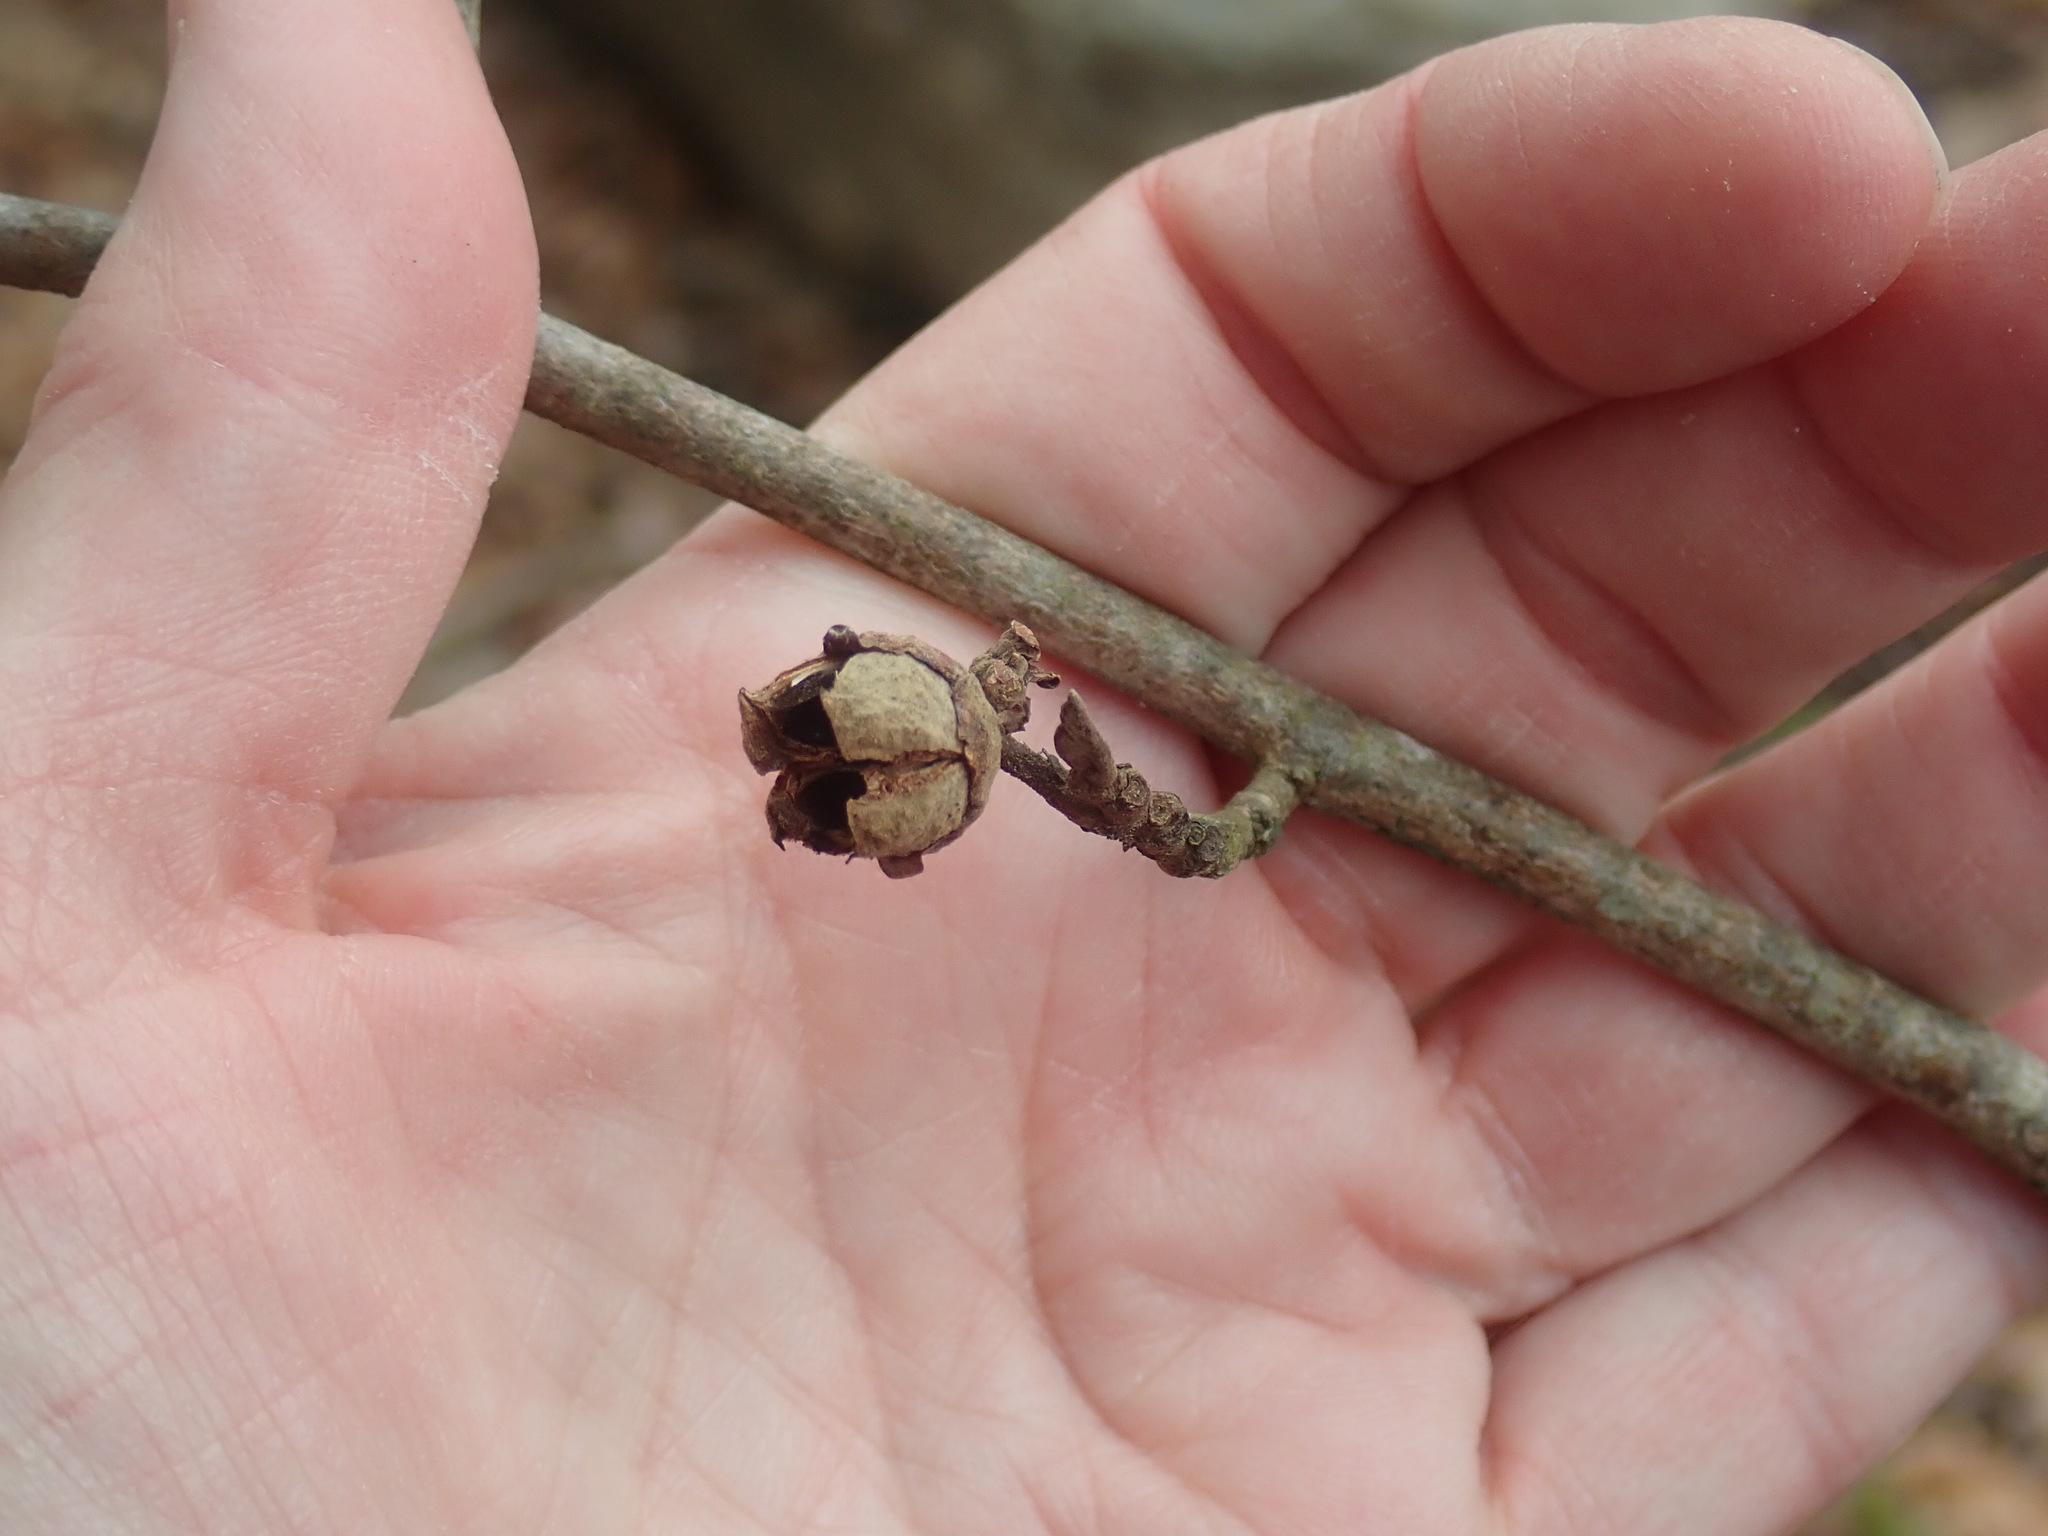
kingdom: Plantae
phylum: Tracheophyta
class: Magnoliopsida
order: Saxifragales
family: Hamamelidaceae
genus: Hamamelis
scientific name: Hamamelis virginiana
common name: Witch-hazel
